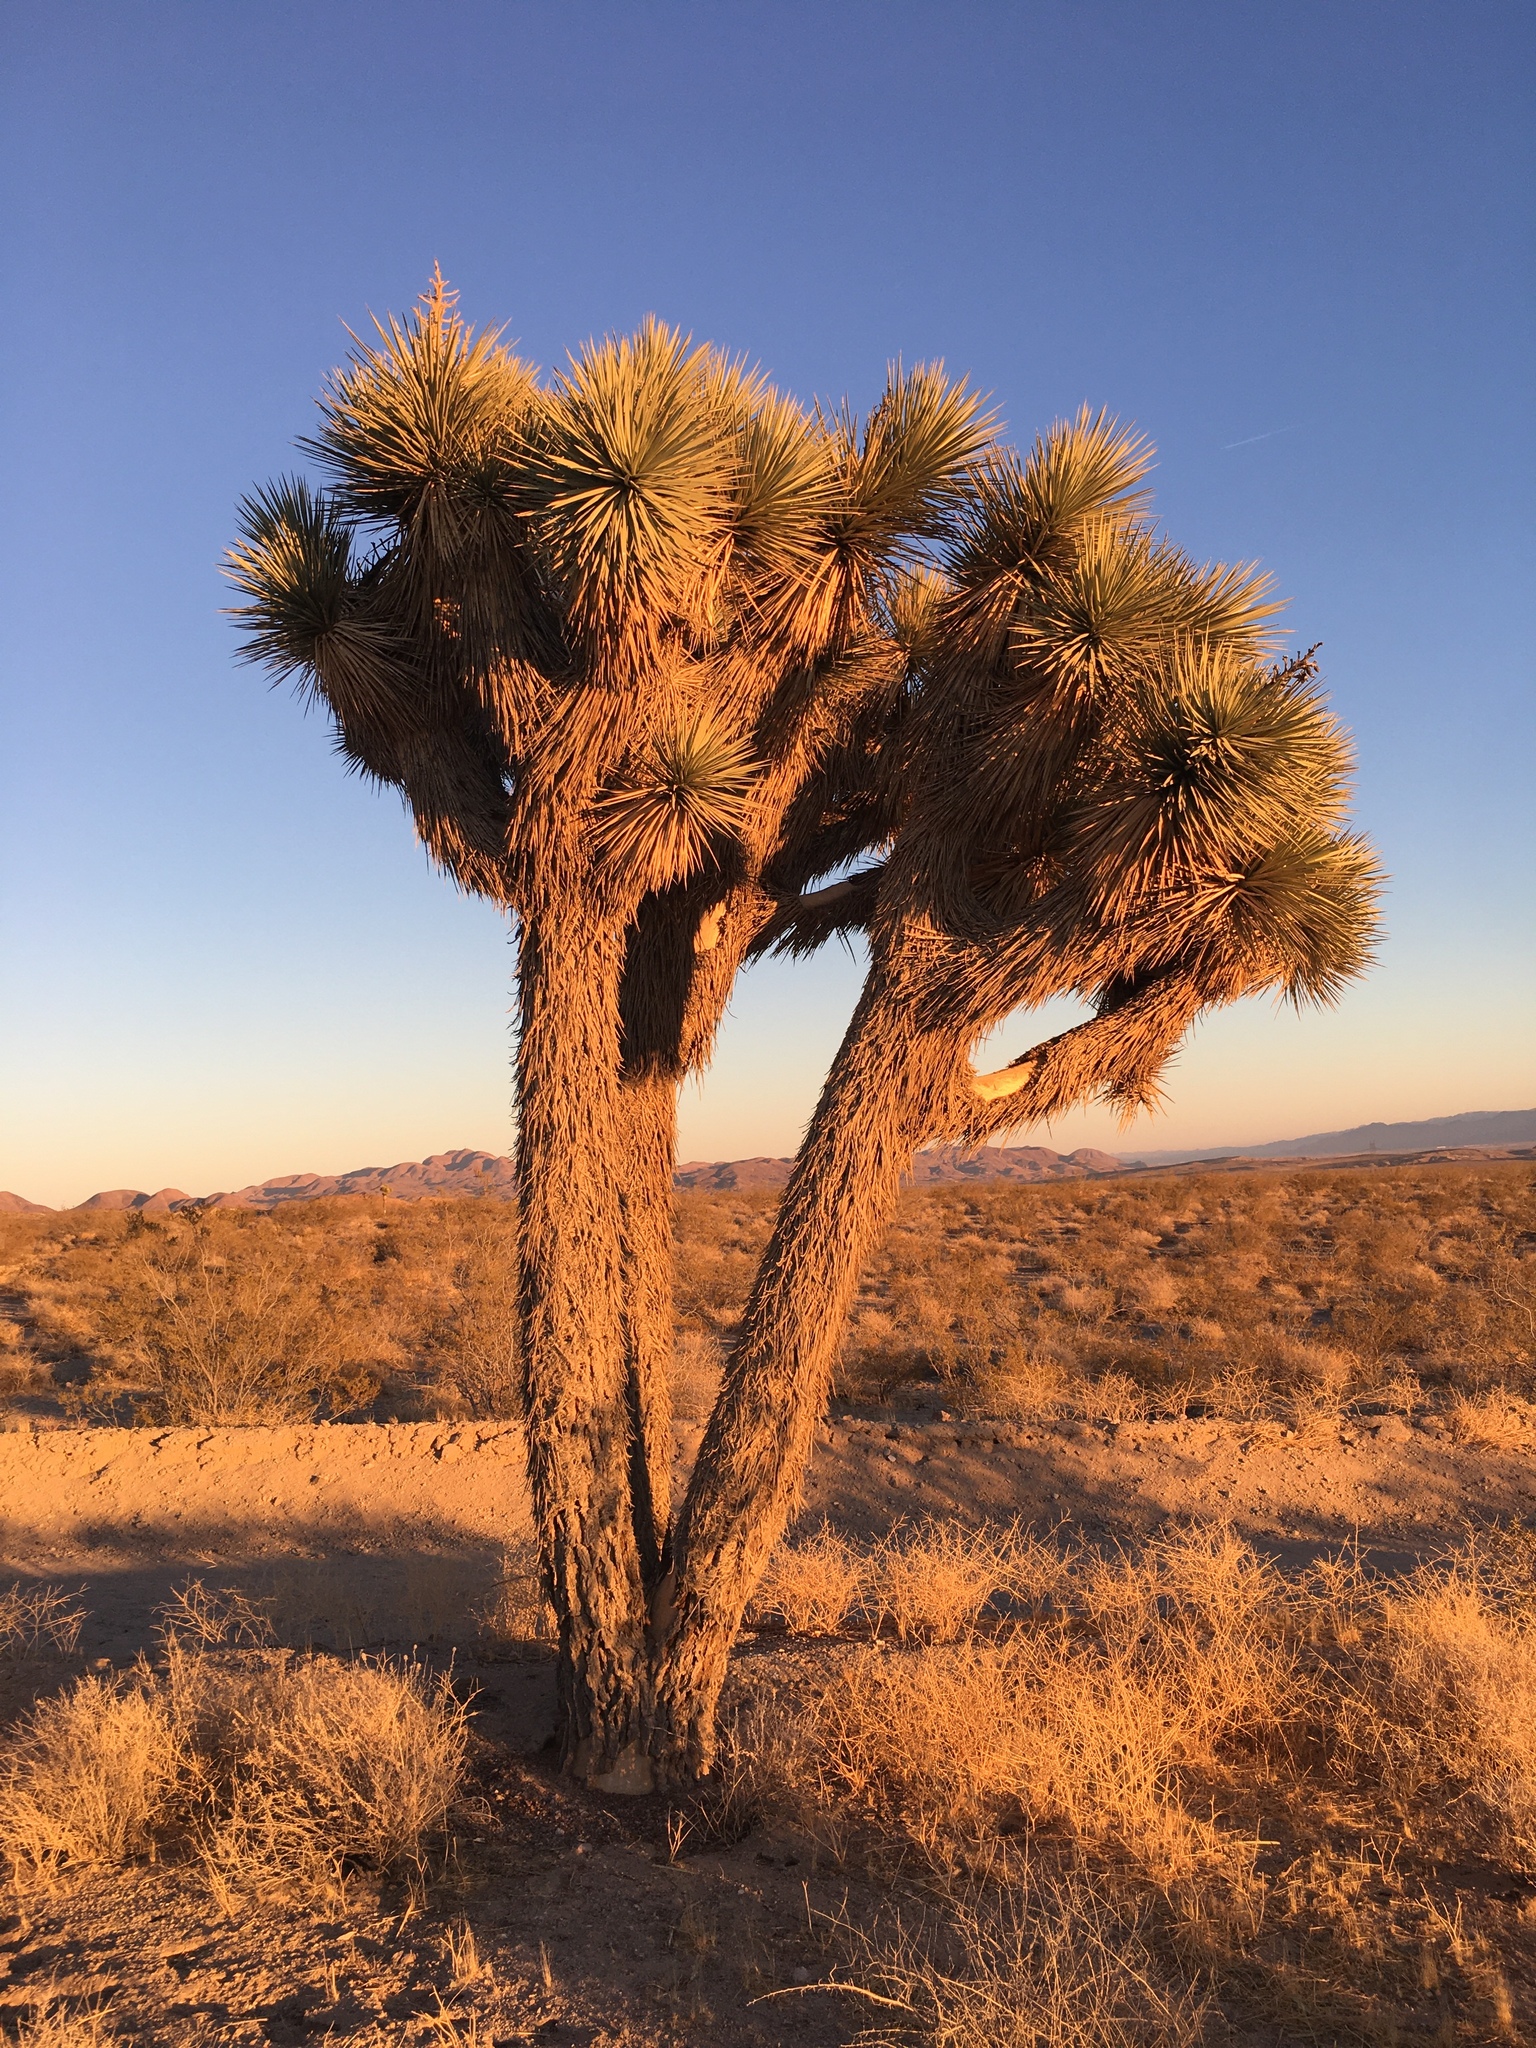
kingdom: Plantae
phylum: Tracheophyta
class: Liliopsida
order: Asparagales
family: Asparagaceae
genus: Yucca
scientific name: Yucca brevifolia
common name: Joshua tree
